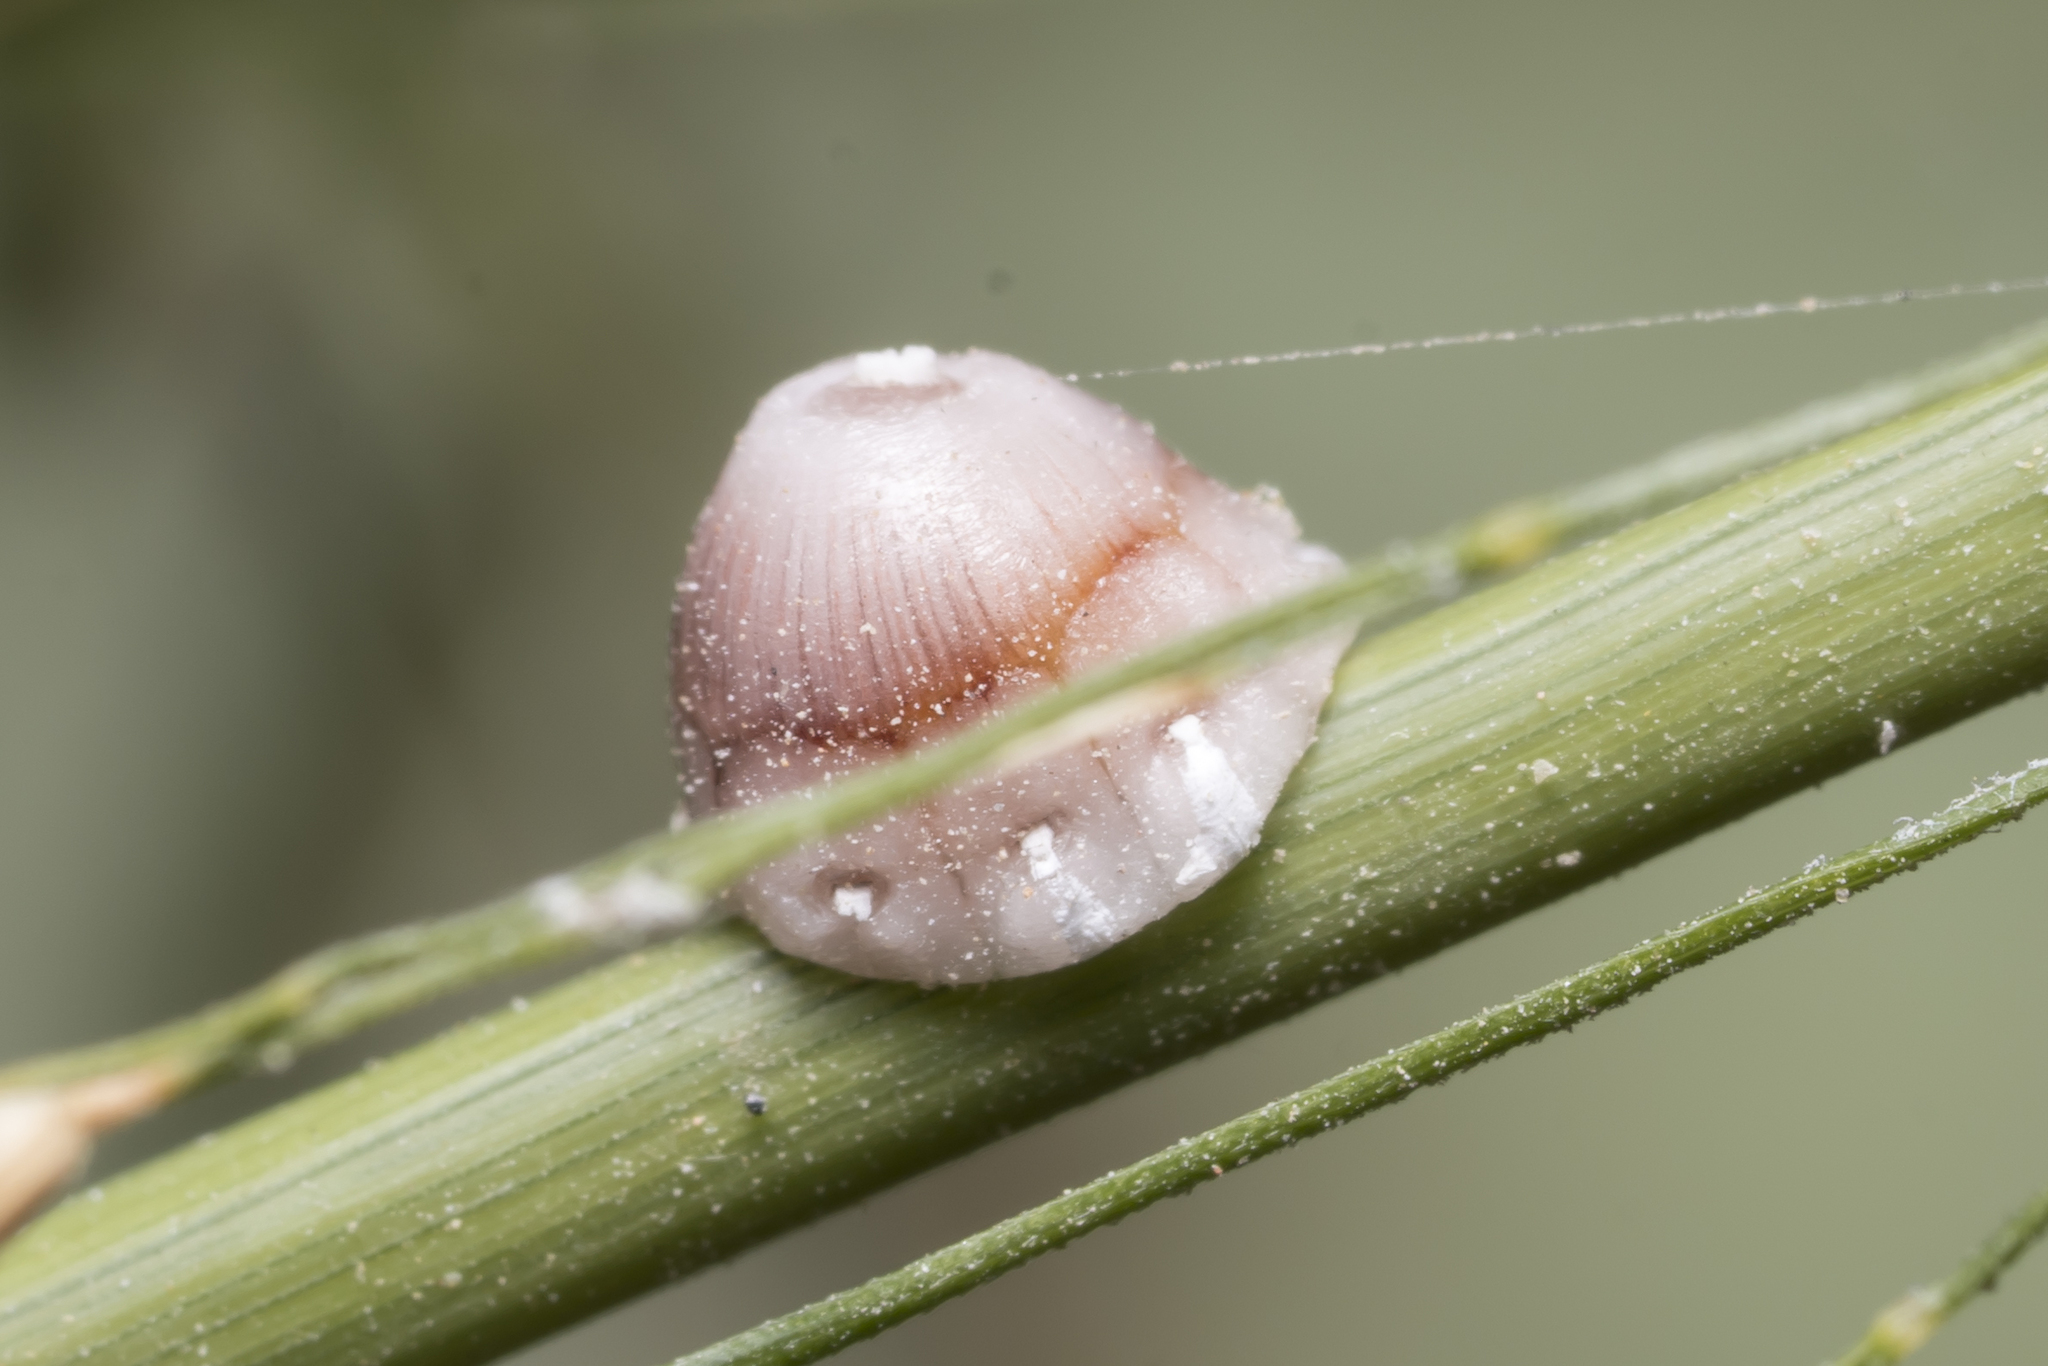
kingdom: Animalia
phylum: Arthropoda
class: Insecta
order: Hemiptera
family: Coccidae
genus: Ceroplastes
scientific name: Ceroplastes rusci
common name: Barnacle scale
